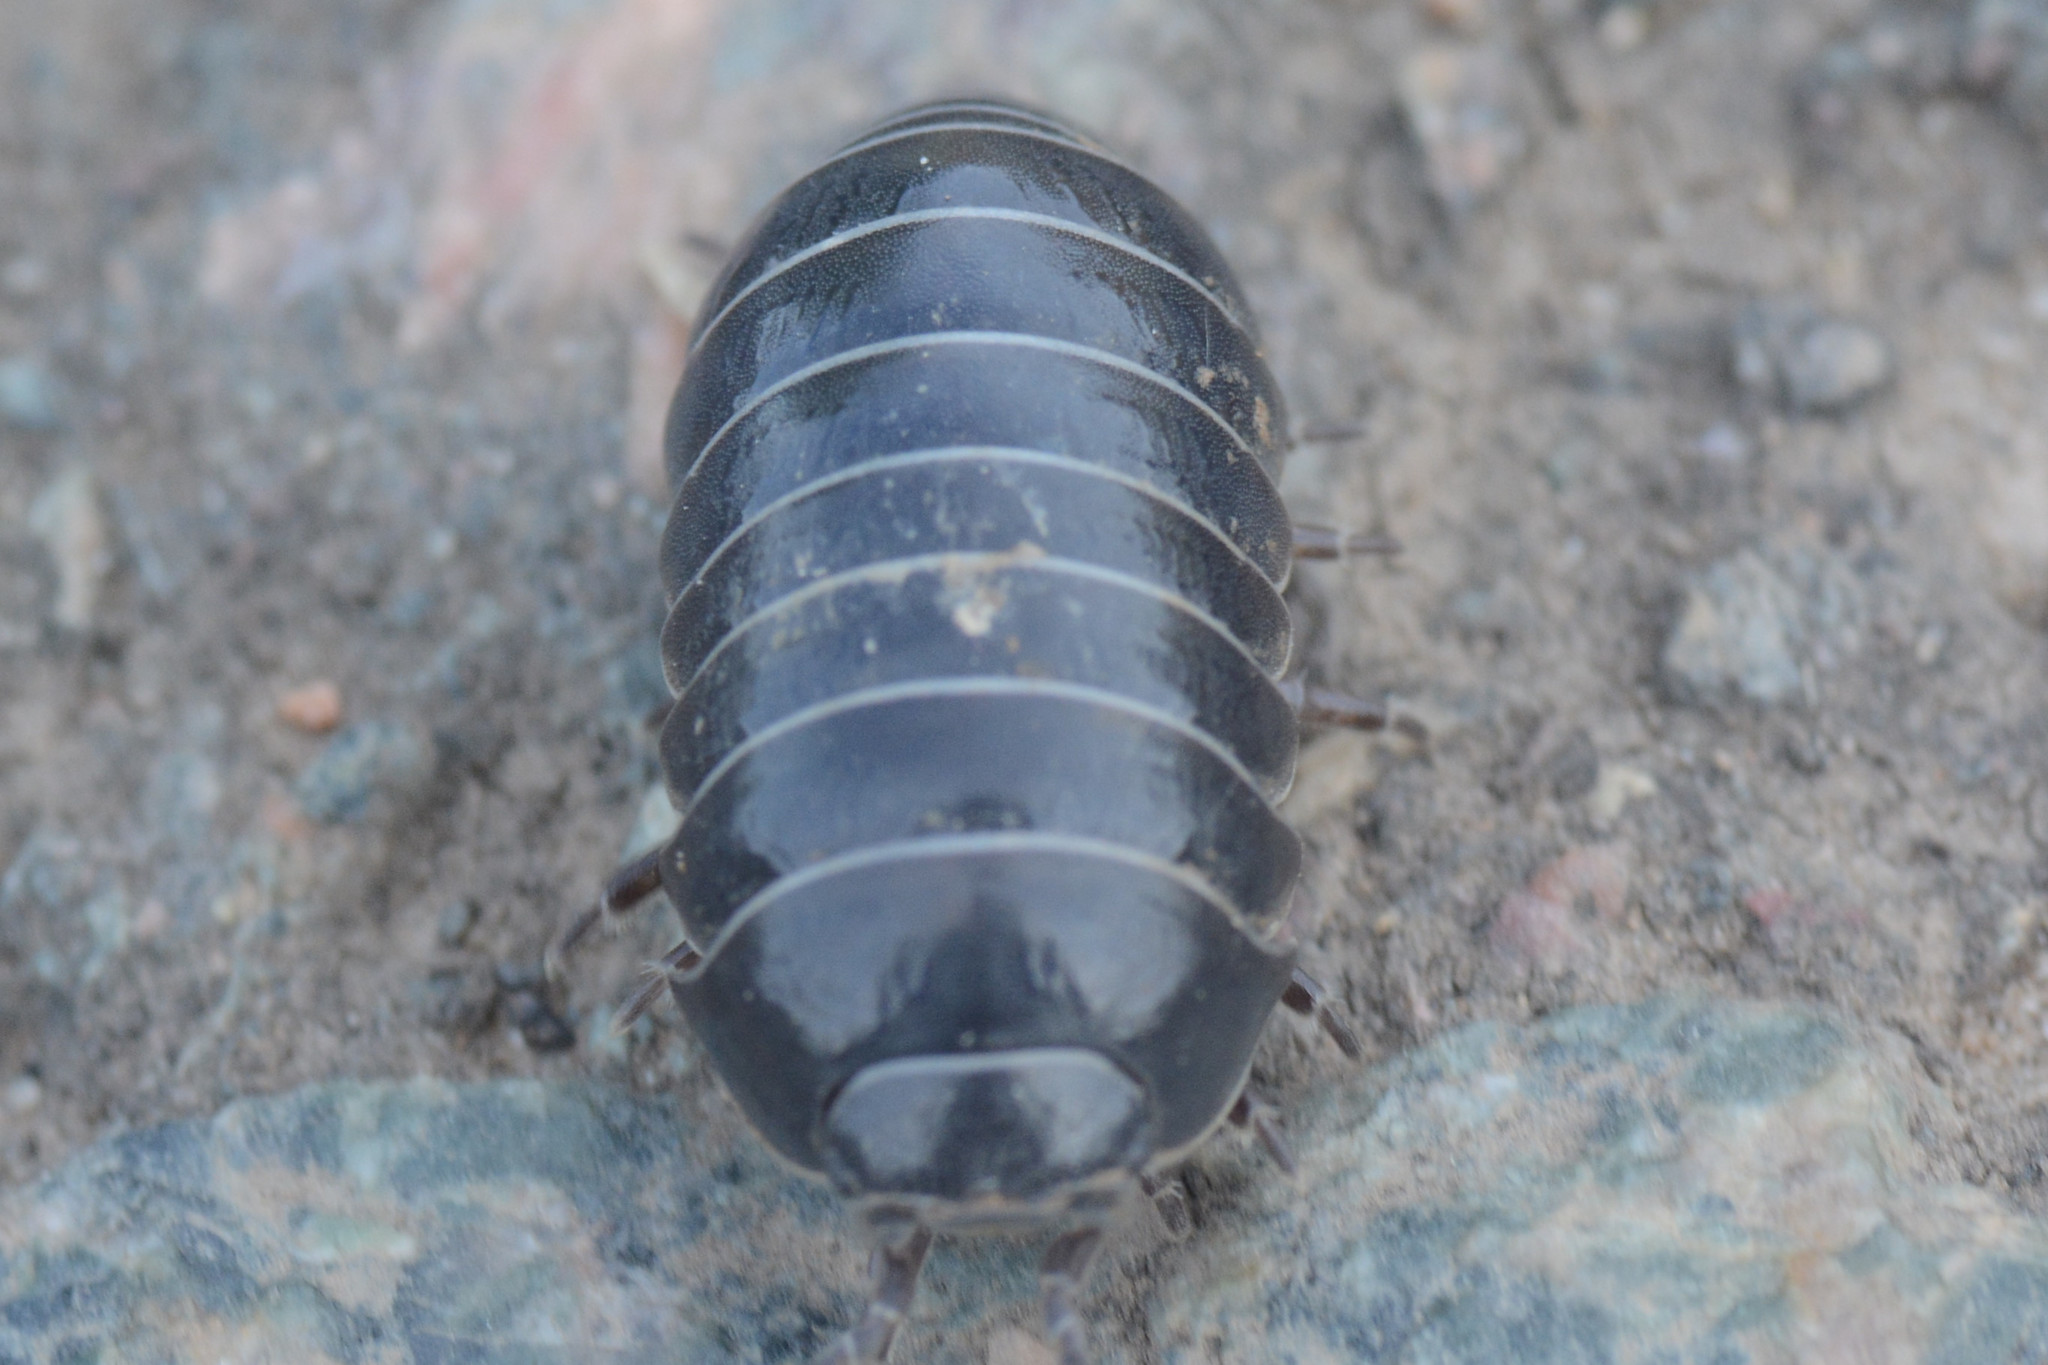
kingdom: Animalia
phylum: Arthropoda
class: Malacostraca
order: Isopoda
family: Armadillidiidae
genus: Armadillidium
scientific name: Armadillidium vulgare
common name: Common pill woodlouse
